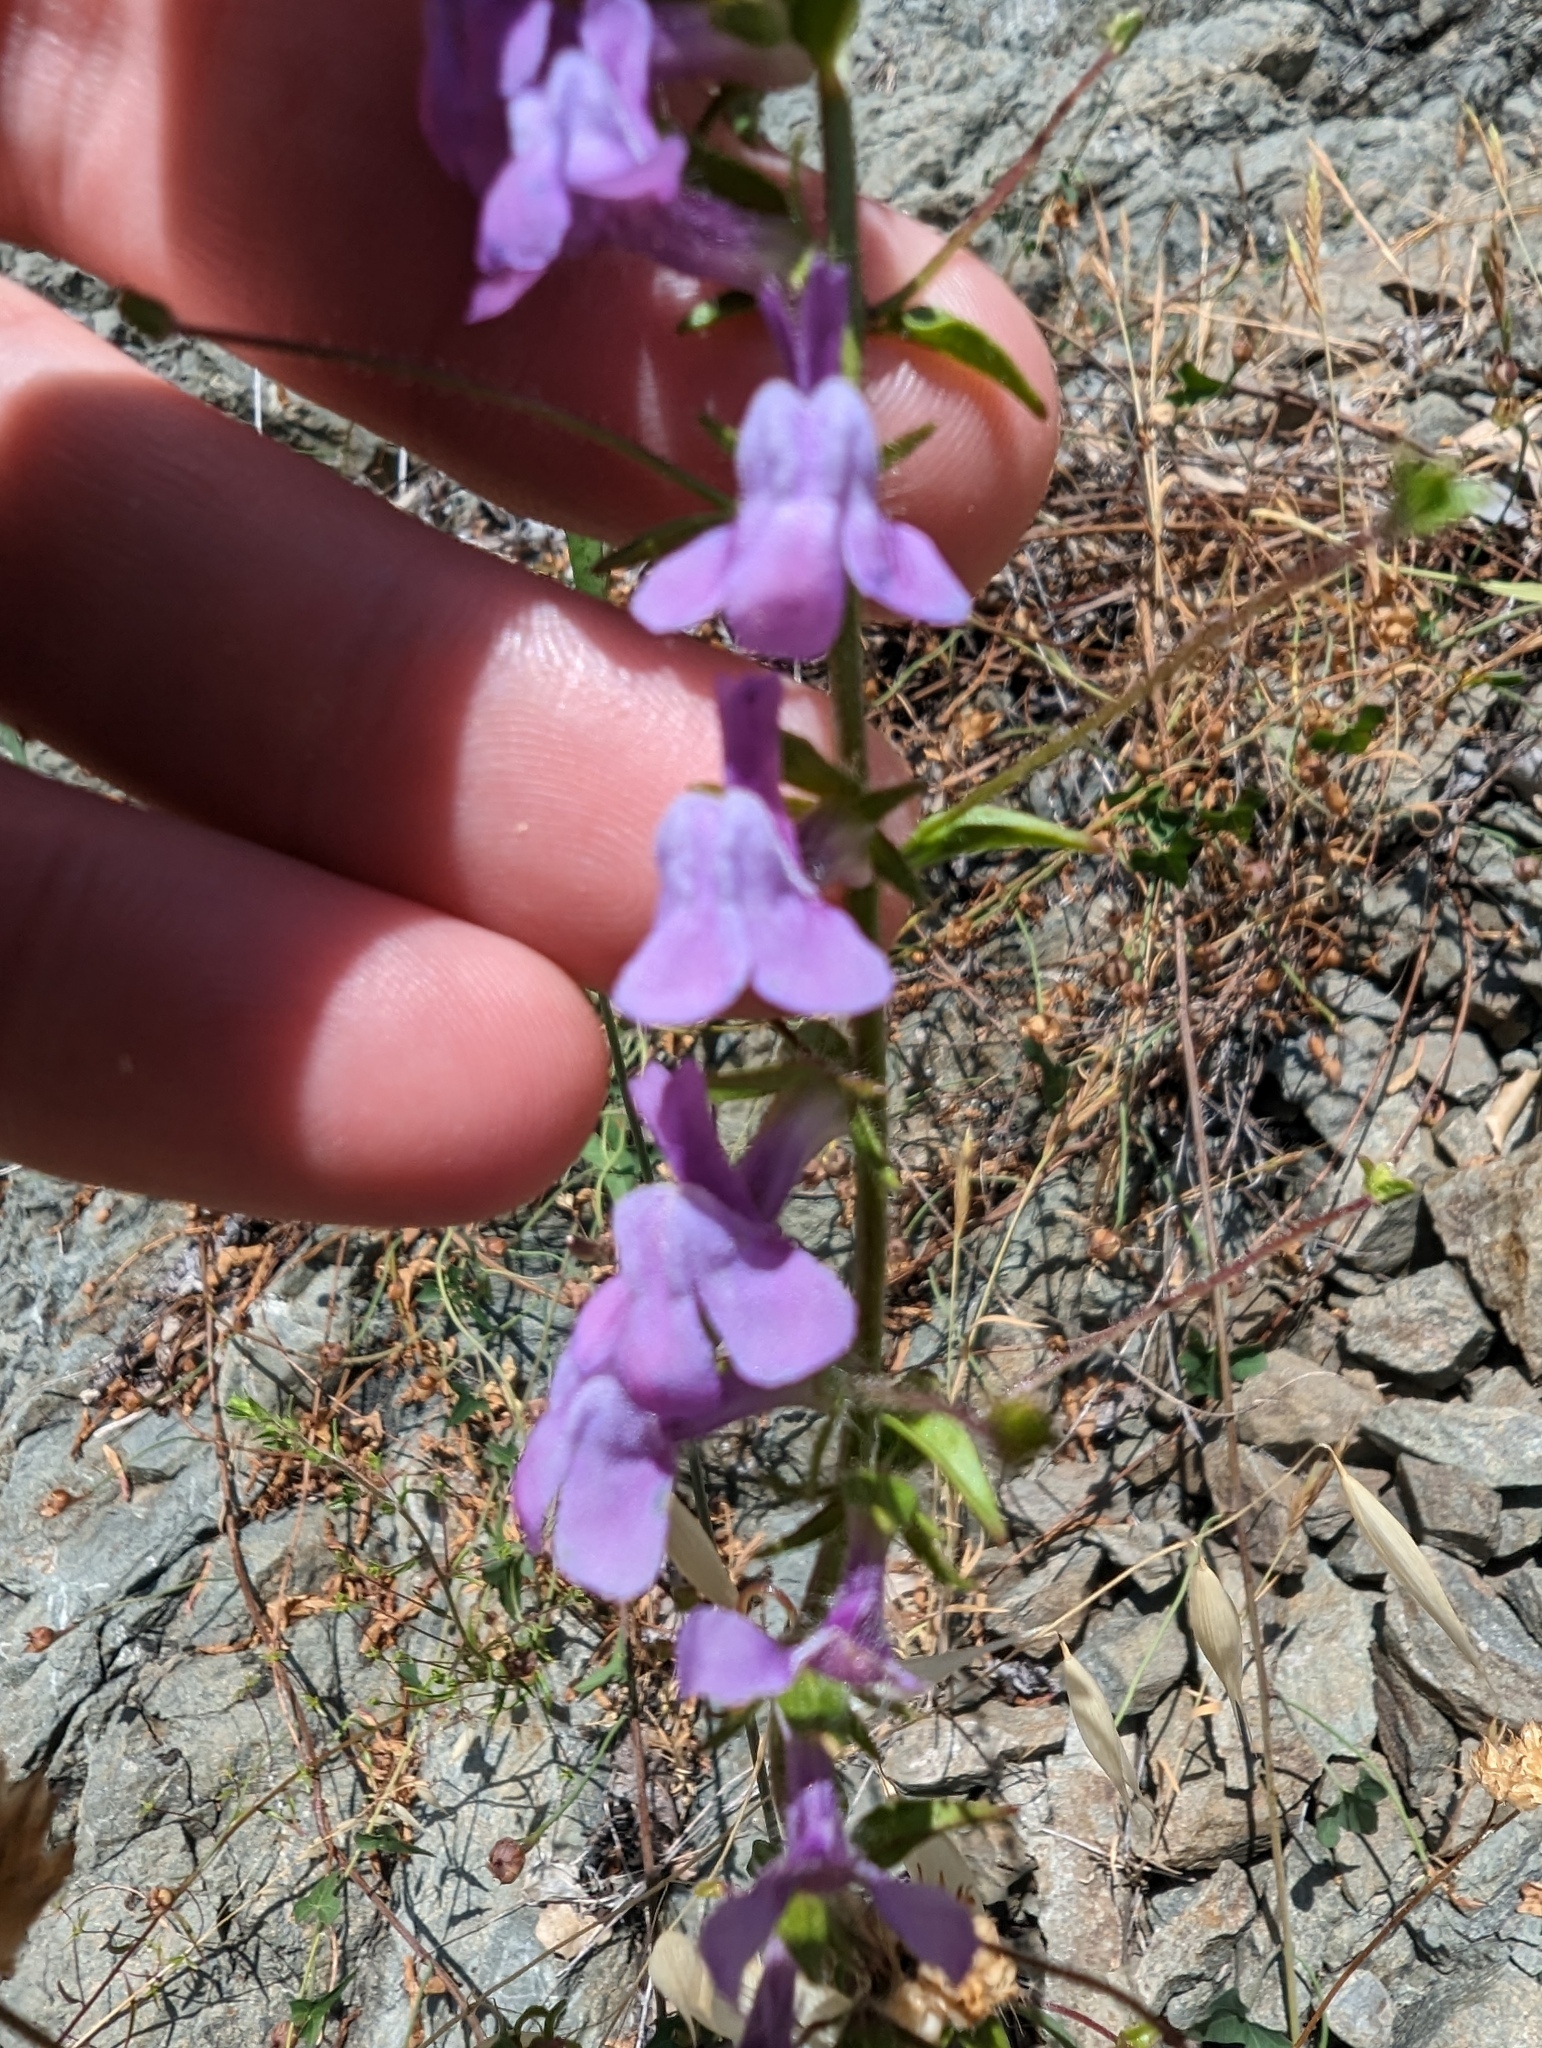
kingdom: Plantae
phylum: Tracheophyta
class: Magnoliopsida
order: Lamiales
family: Plantaginaceae
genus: Sairocarpus
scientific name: Sairocarpus vexillocalyculatus
